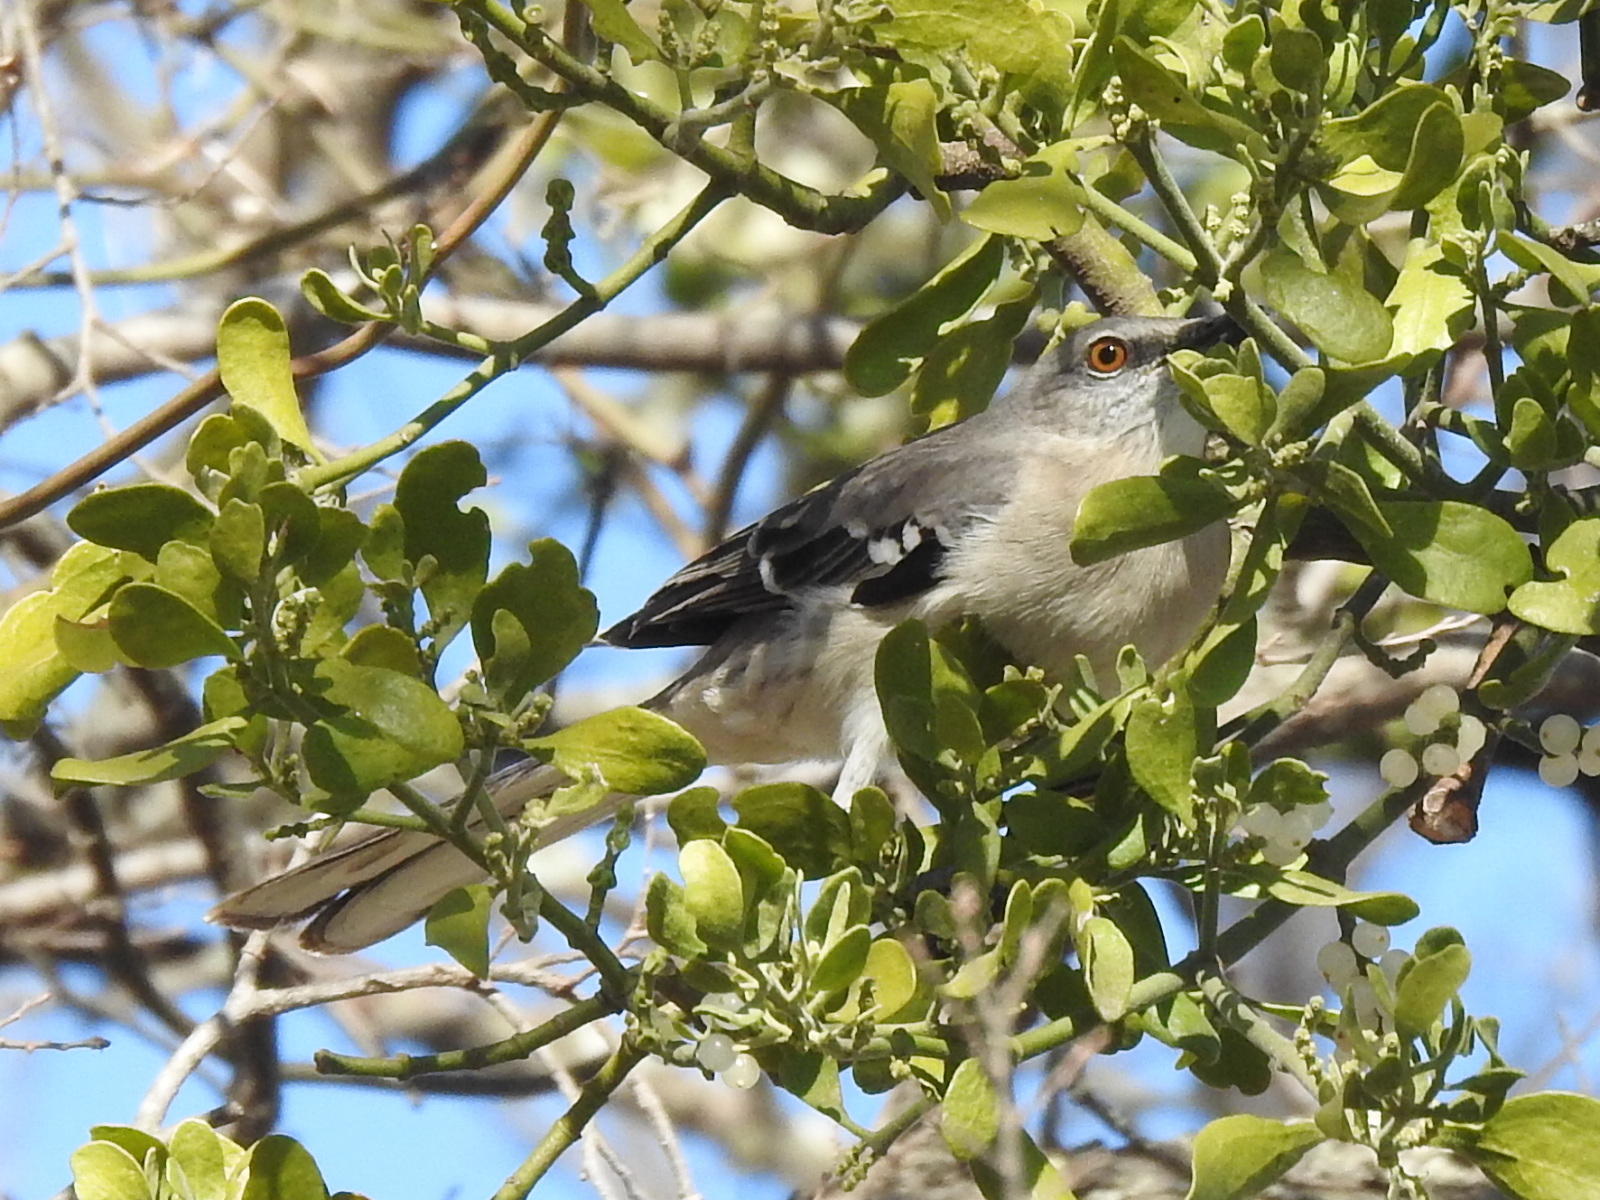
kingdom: Animalia
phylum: Chordata
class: Aves
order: Passeriformes
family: Mimidae
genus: Mimus
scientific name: Mimus polyglottos
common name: Northern mockingbird
